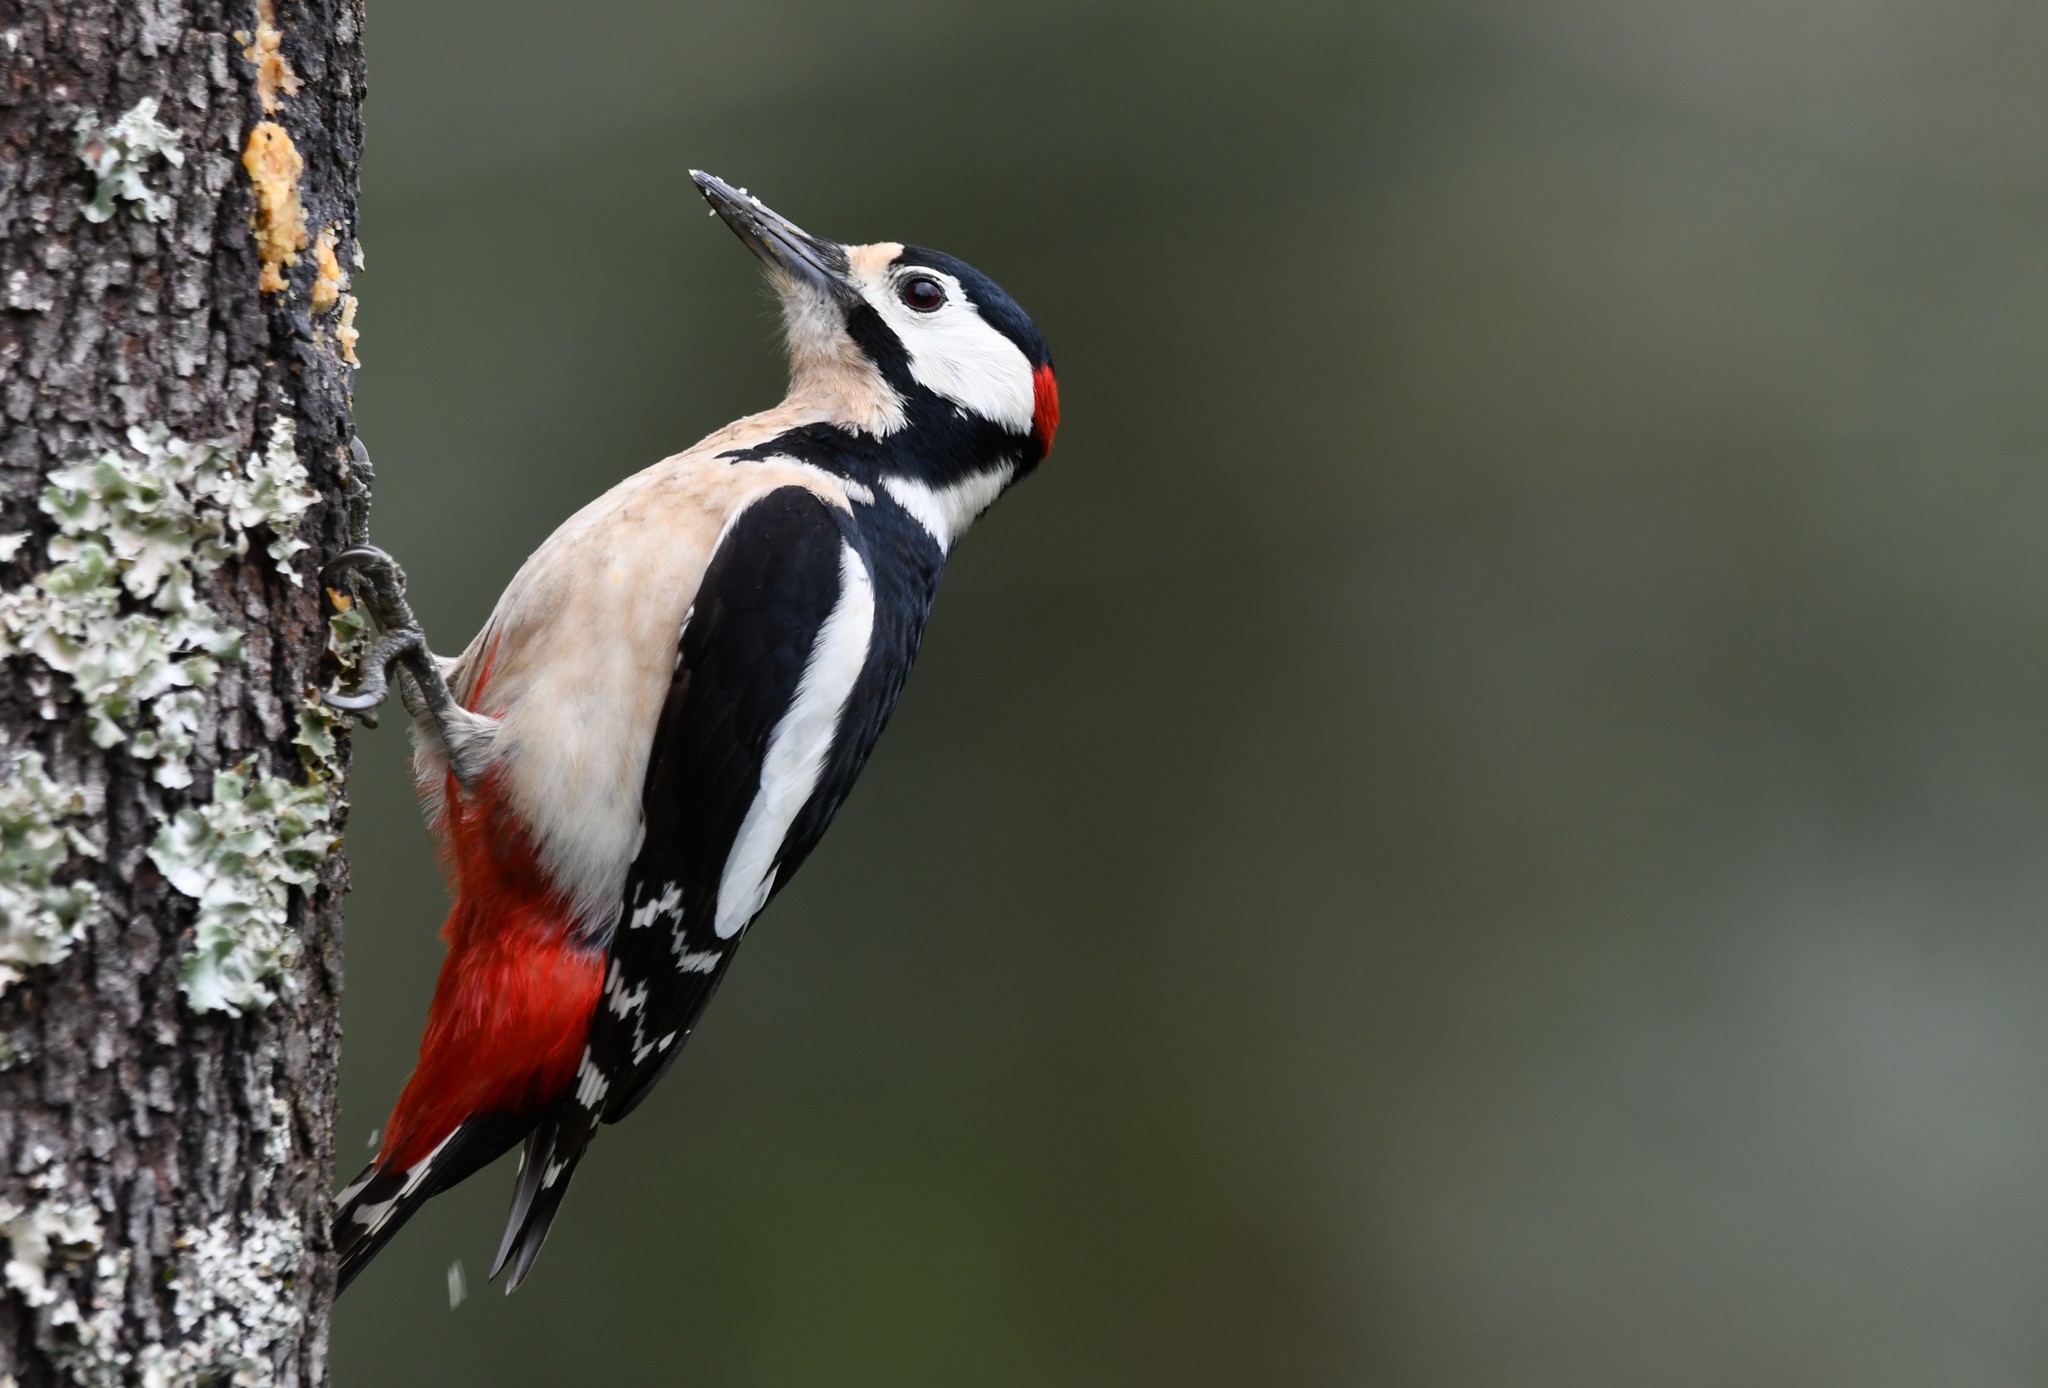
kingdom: Animalia
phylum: Chordata
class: Aves
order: Piciformes
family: Picidae
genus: Dendrocopos
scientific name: Dendrocopos major
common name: Great spotted woodpecker
